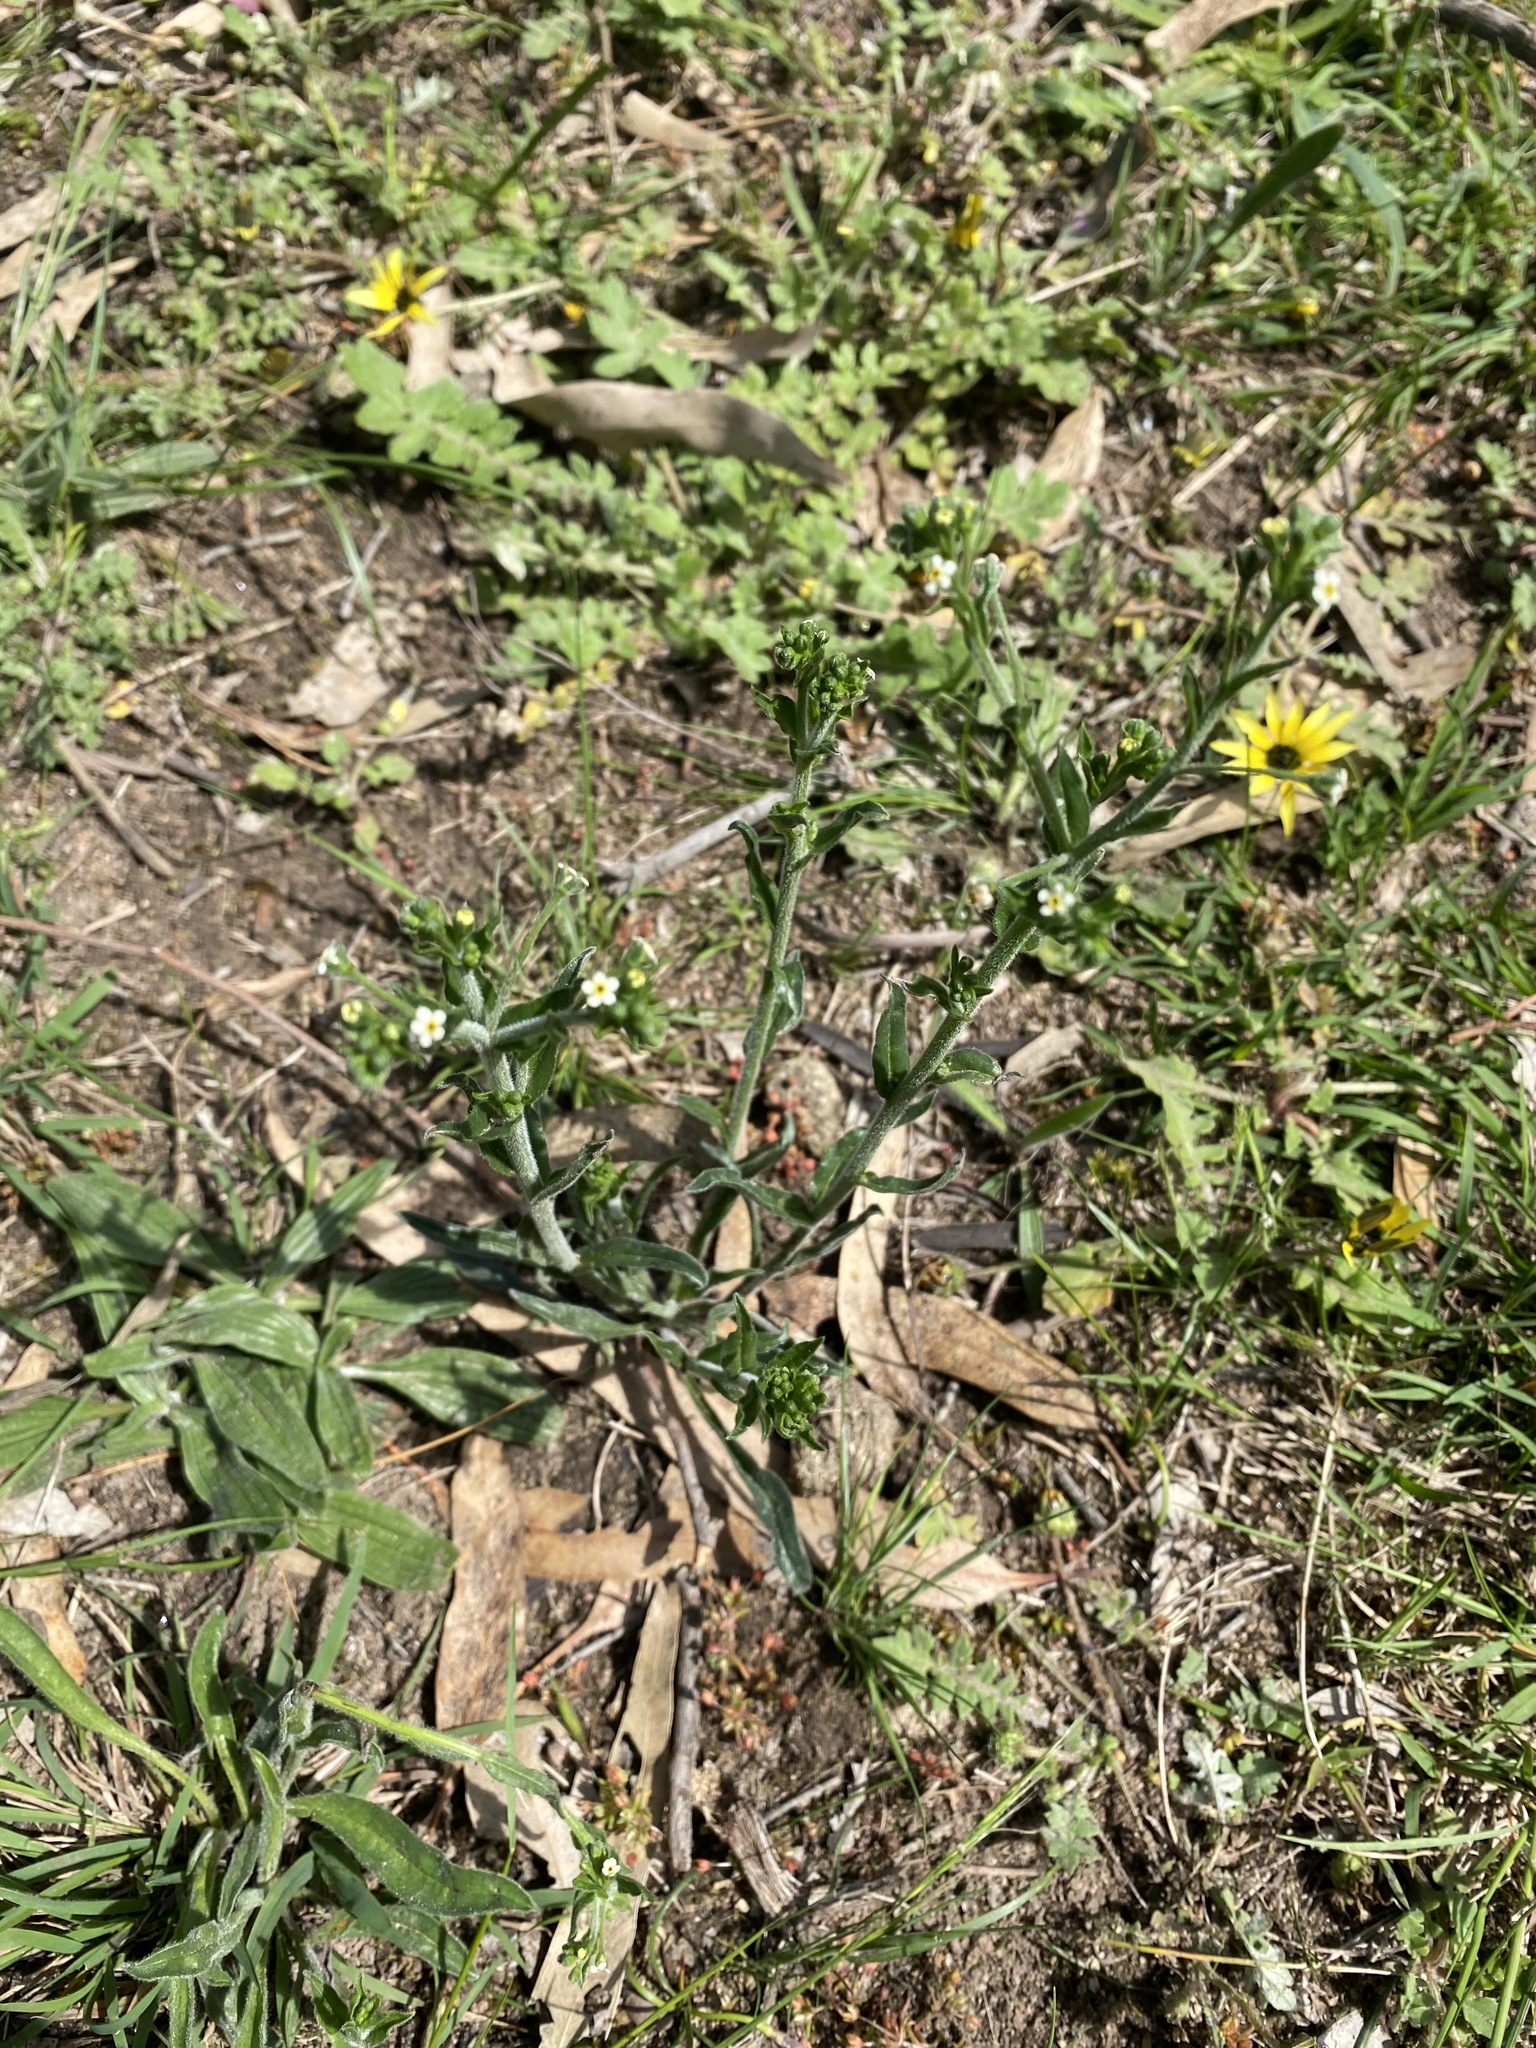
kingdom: Plantae
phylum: Tracheophyta
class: Magnoliopsida
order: Boraginales
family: Boraginaceae
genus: Hackelia
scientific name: Hackelia suaveolens
